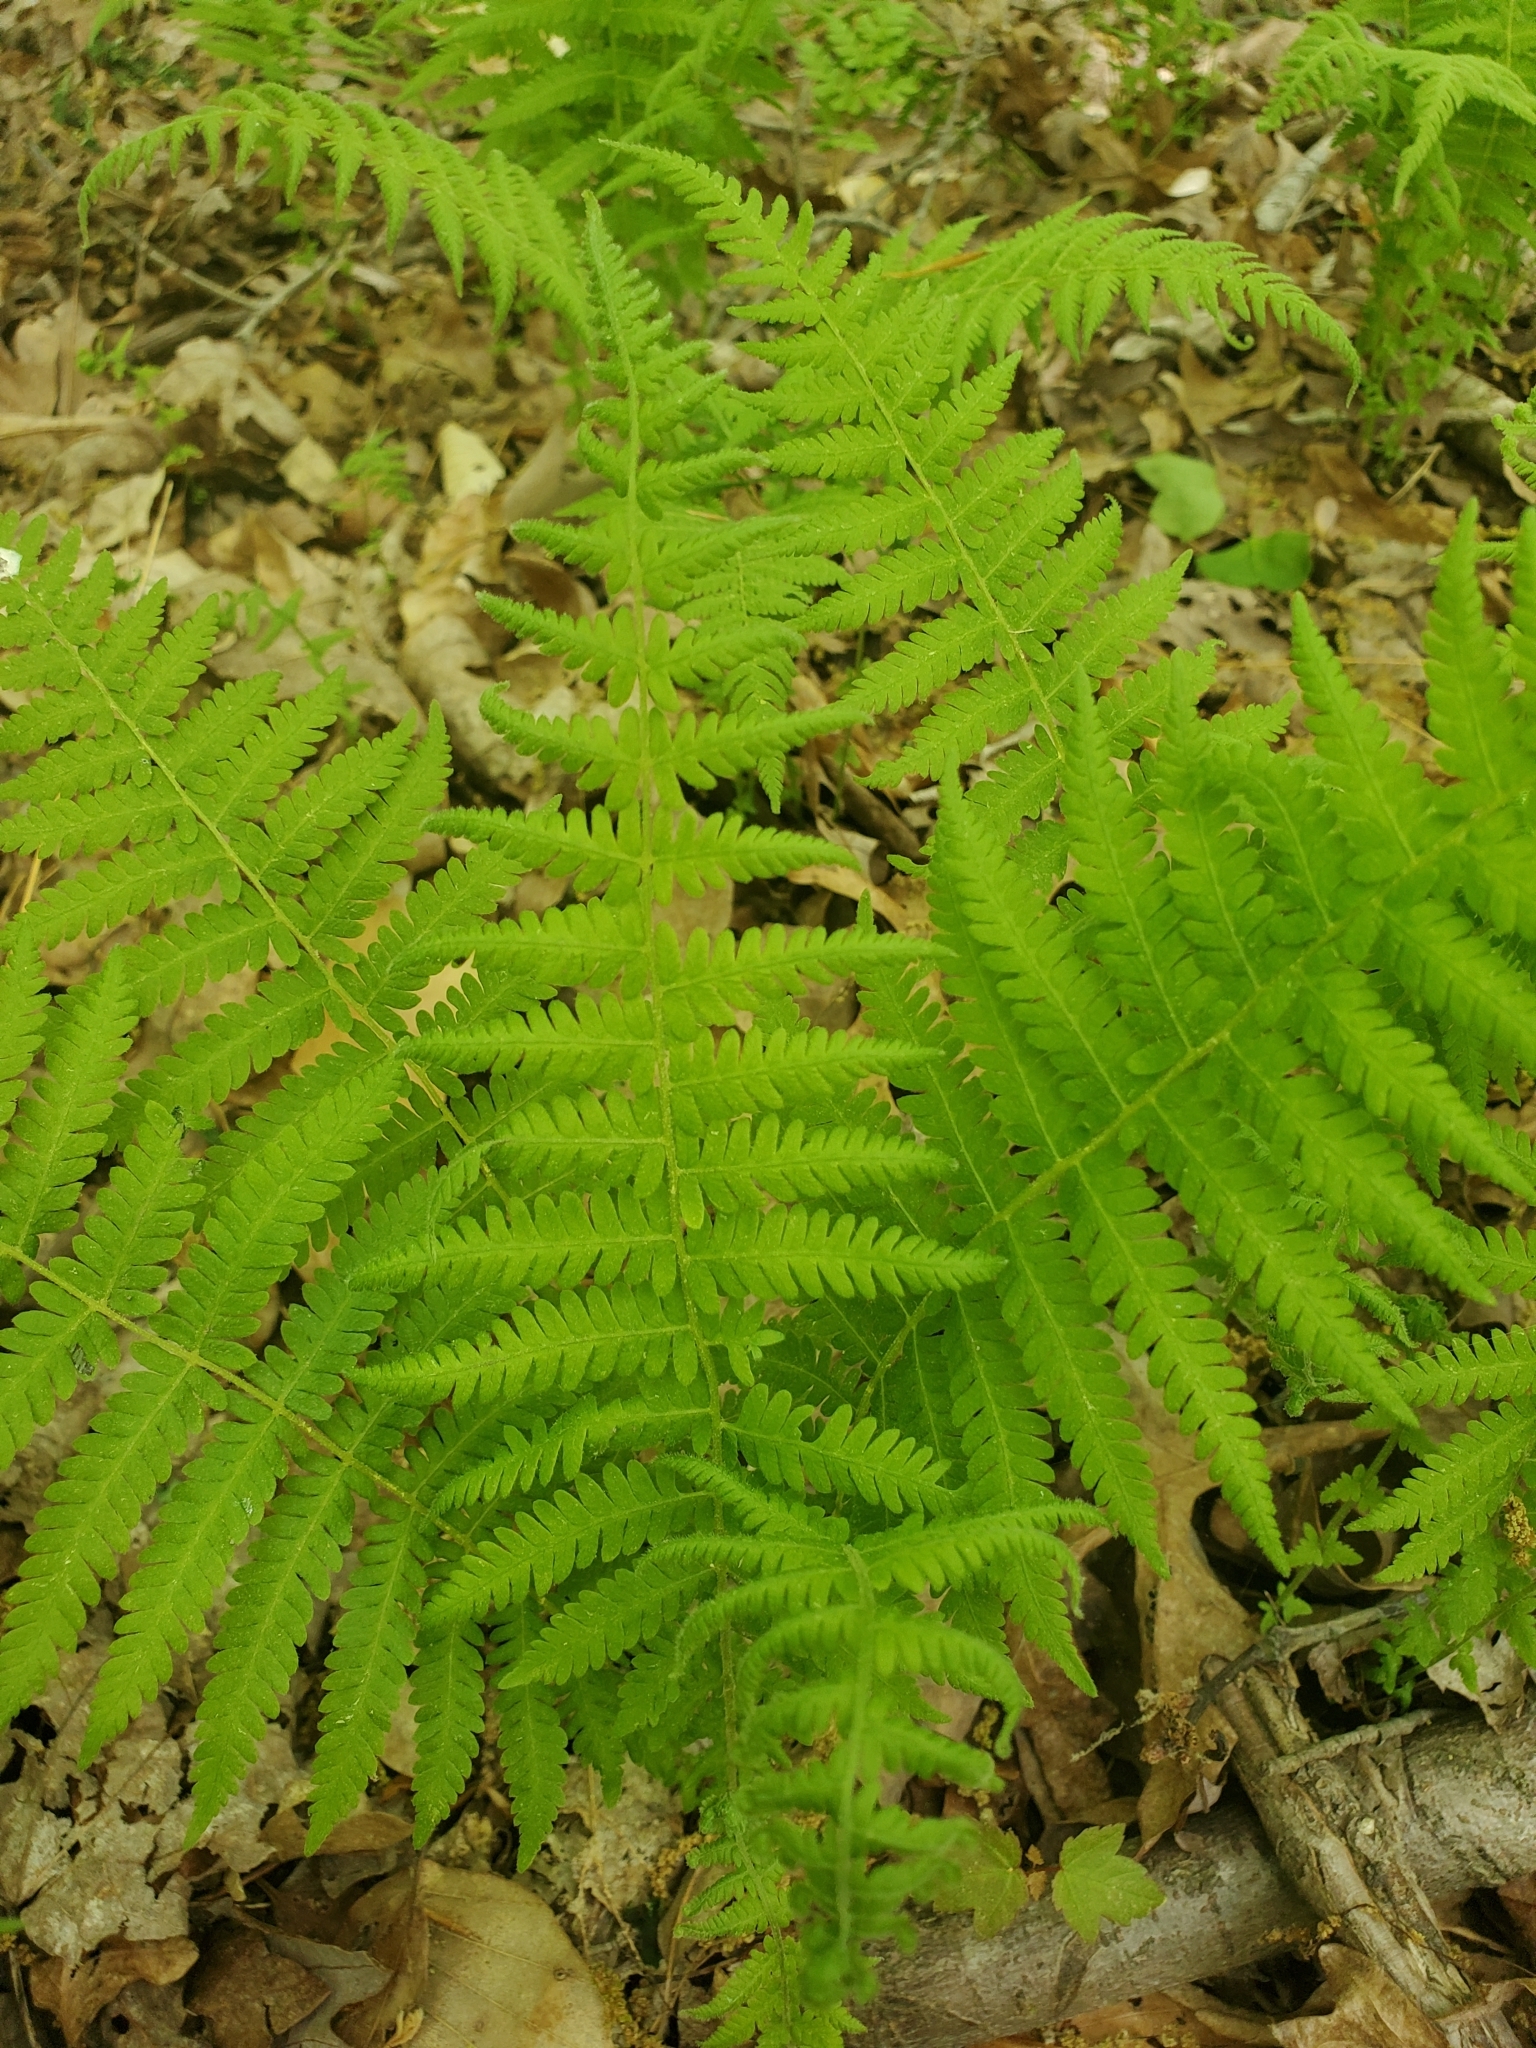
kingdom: Plantae
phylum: Tracheophyta
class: Polypodiopsida
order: Polypodiales
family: Thelypteridaceae
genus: Amauropelta
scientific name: Amauropelta noveboracensis
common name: New york fern
